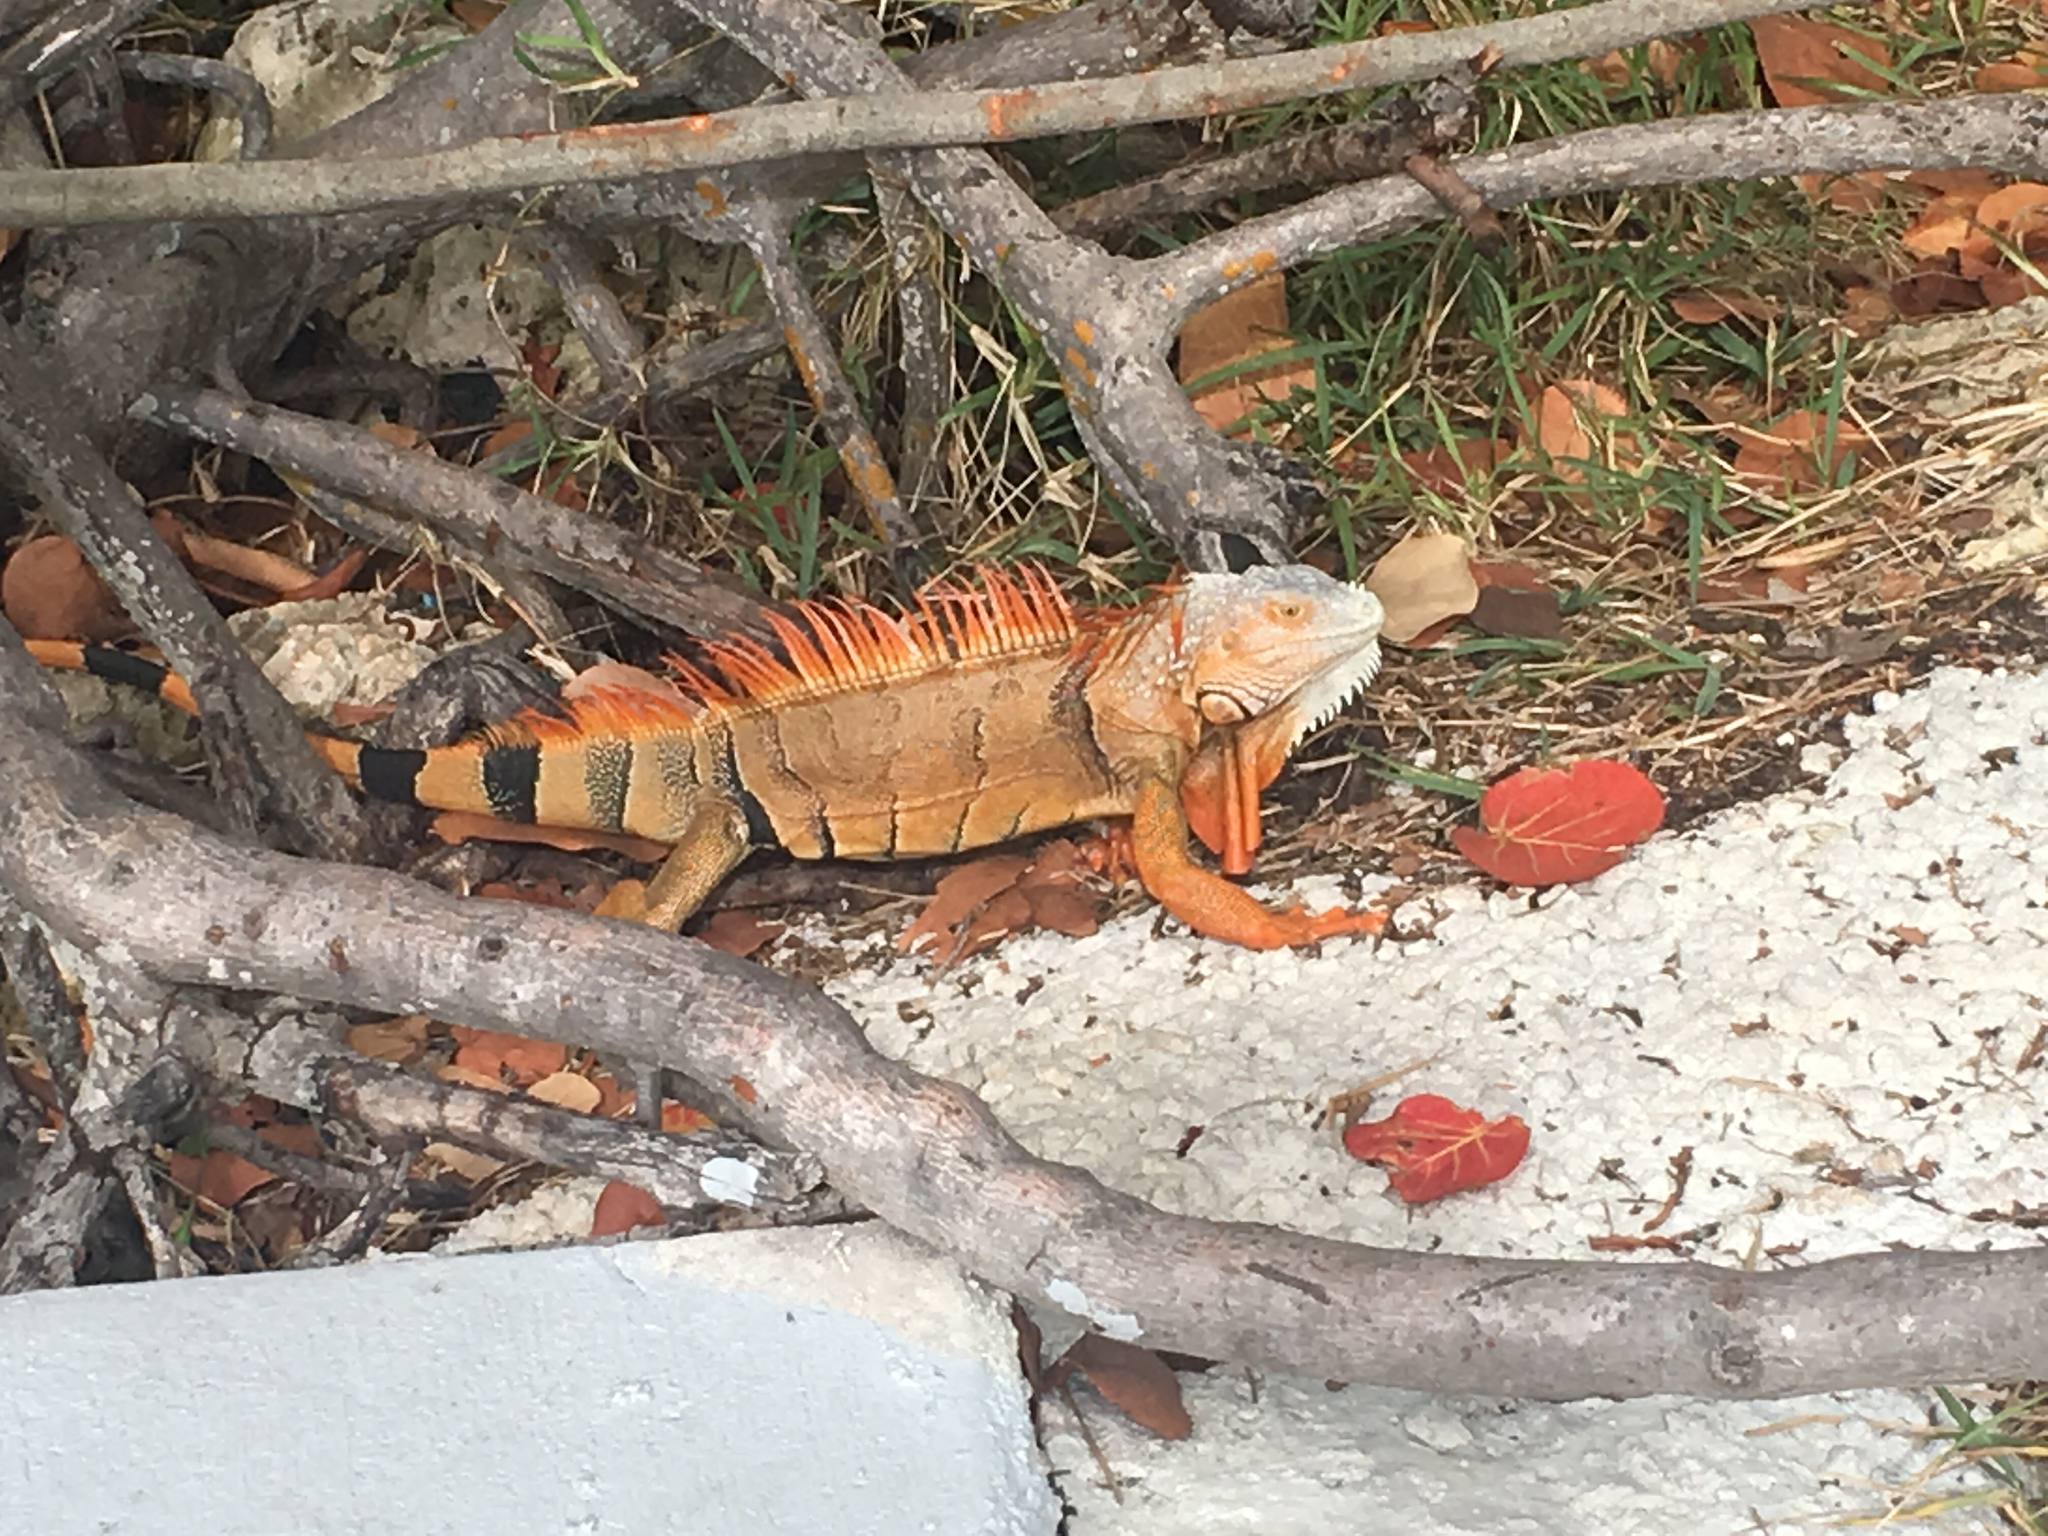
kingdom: Animalia
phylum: Chordata
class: Squamata
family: Iguanidae
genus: Iguana
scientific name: Iguana iguana
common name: Green iguana
